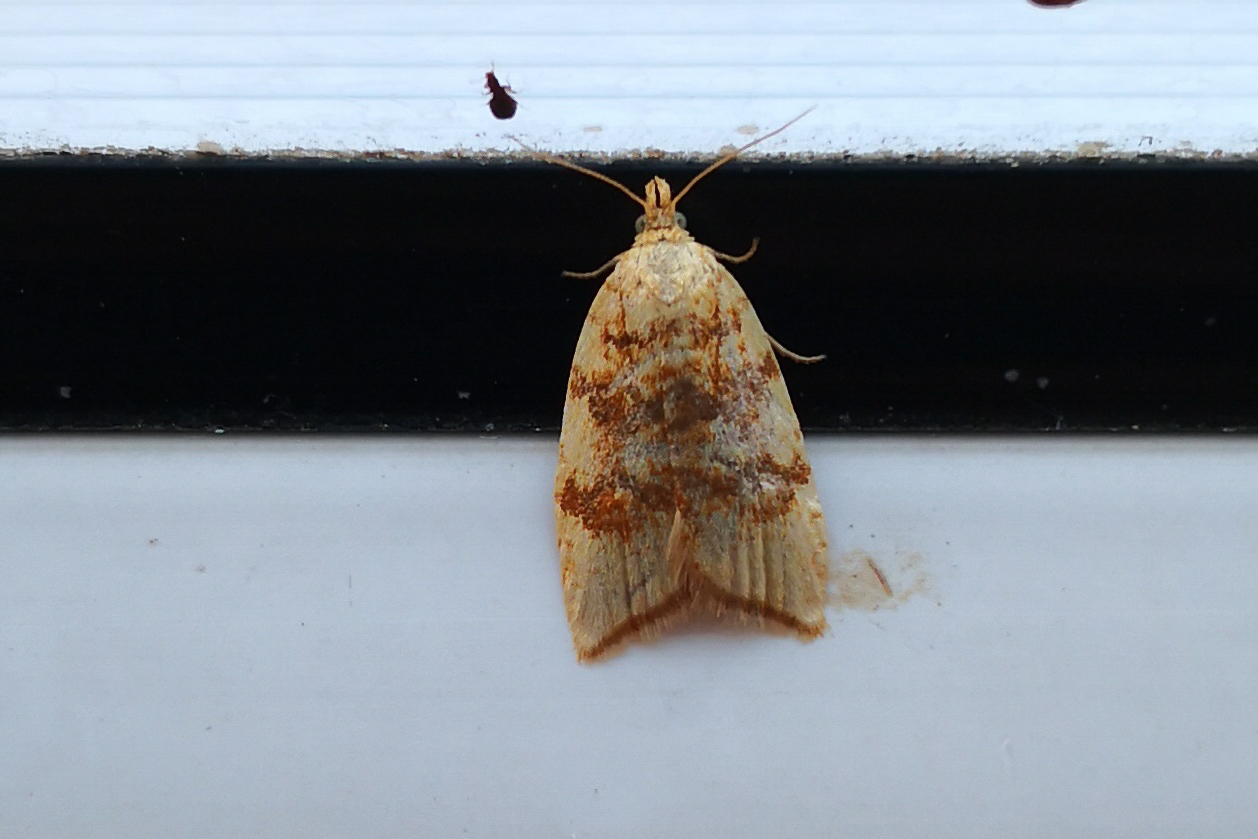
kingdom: Animalia
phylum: Arthropoda
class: Insecta
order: Lepidoptera
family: Tortricidae
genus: Aleimma
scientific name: Aleimma loeflingiana
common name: Yellow oak button
